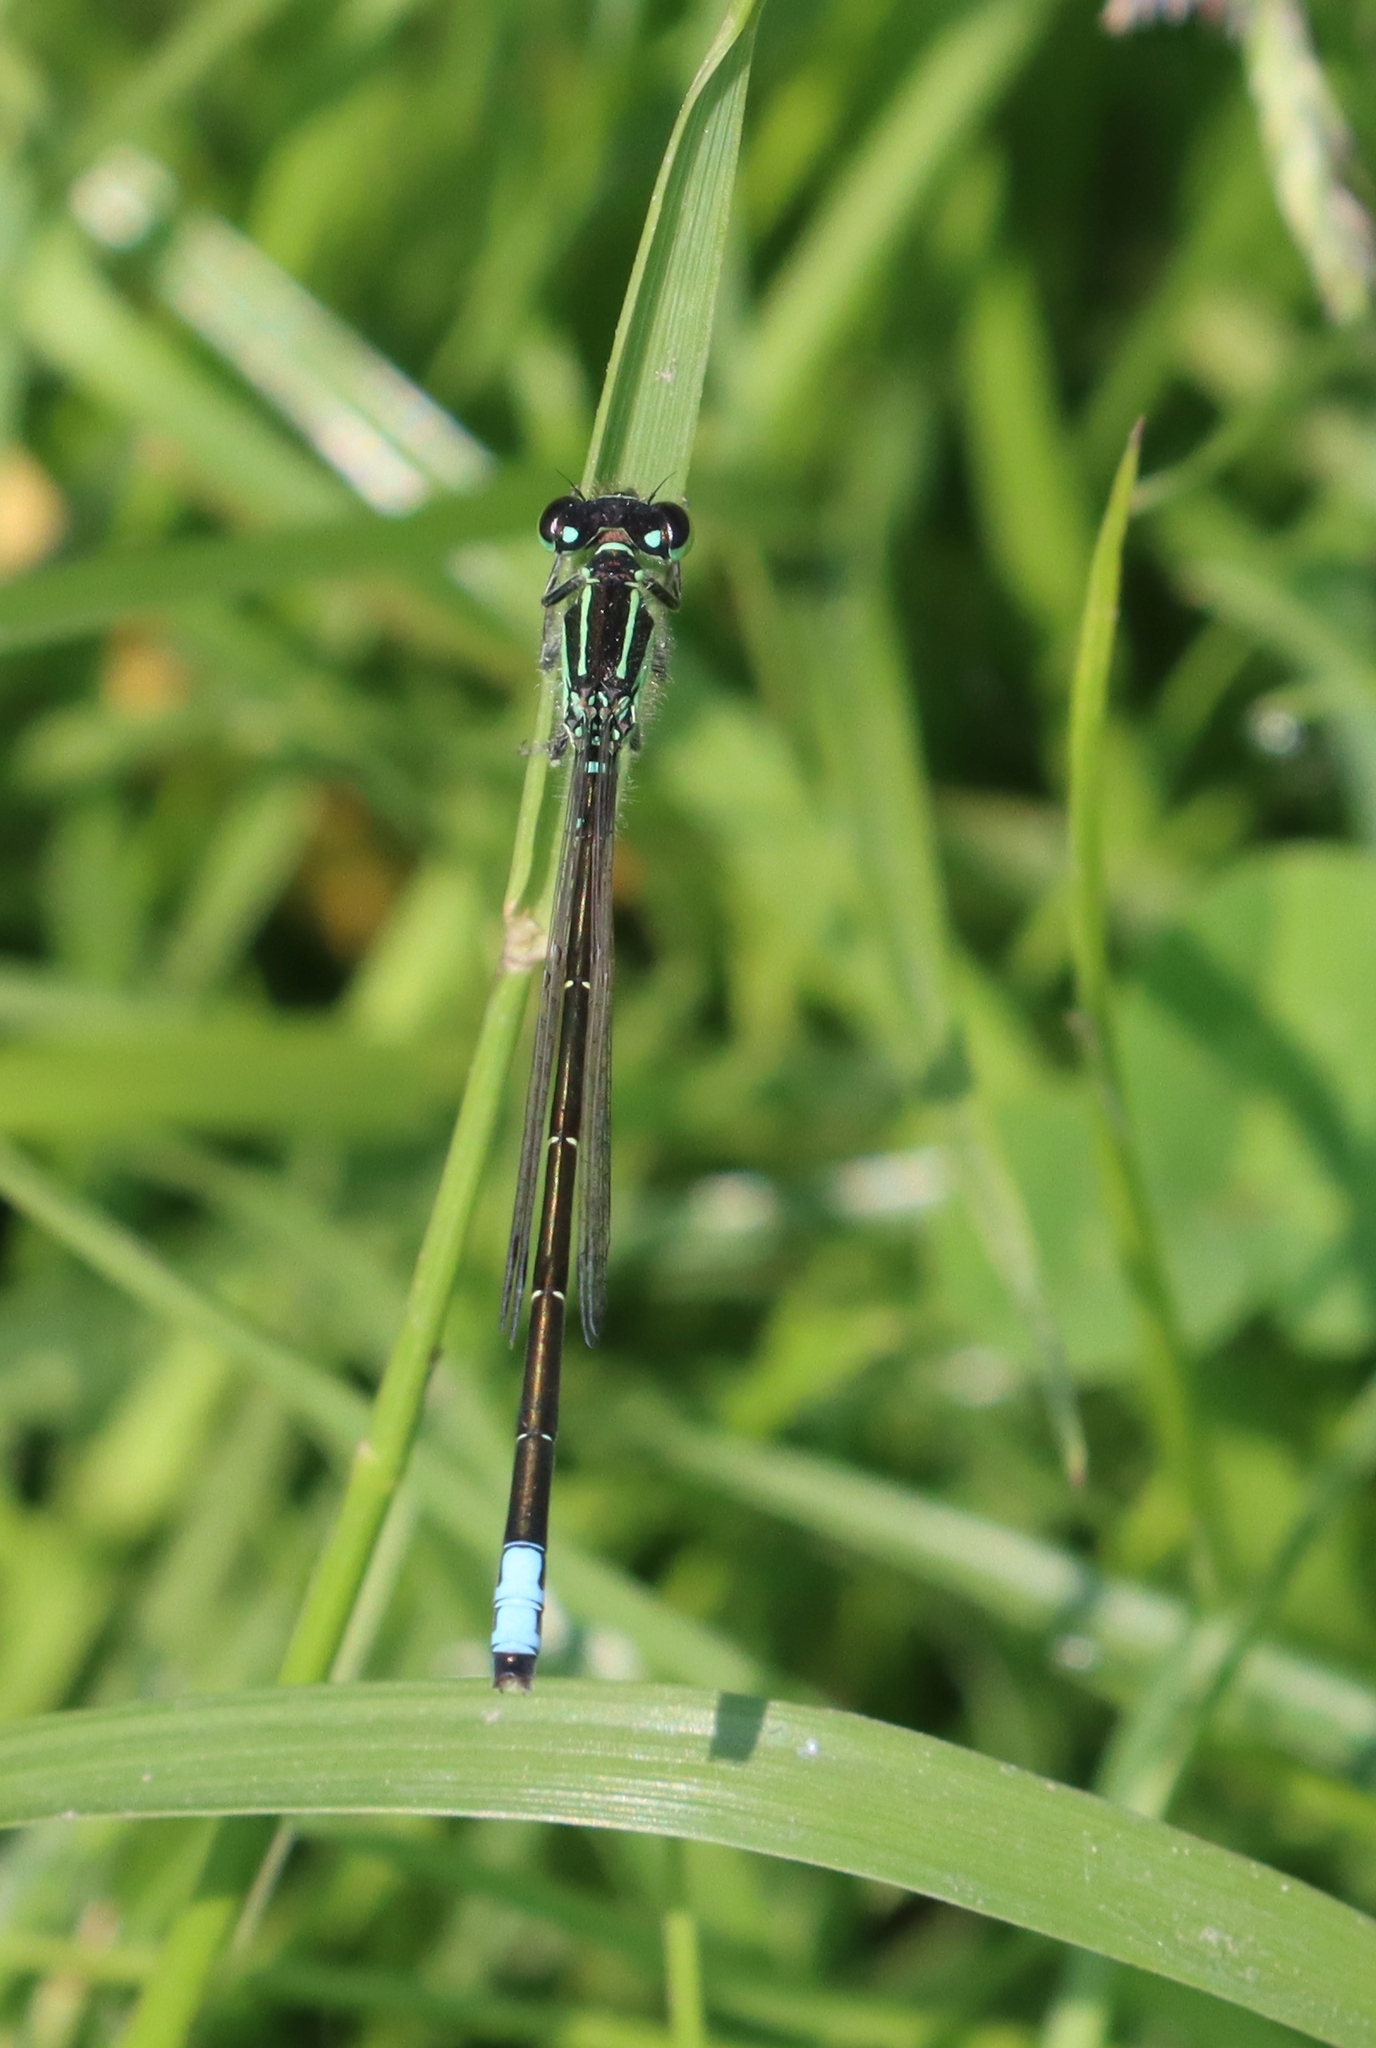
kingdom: Animalia
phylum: Arthropoda
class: Insecta
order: Odonata
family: Coenagrionidae
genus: Ischnura
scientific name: Ischnura verticalis
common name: Eastern forktail
